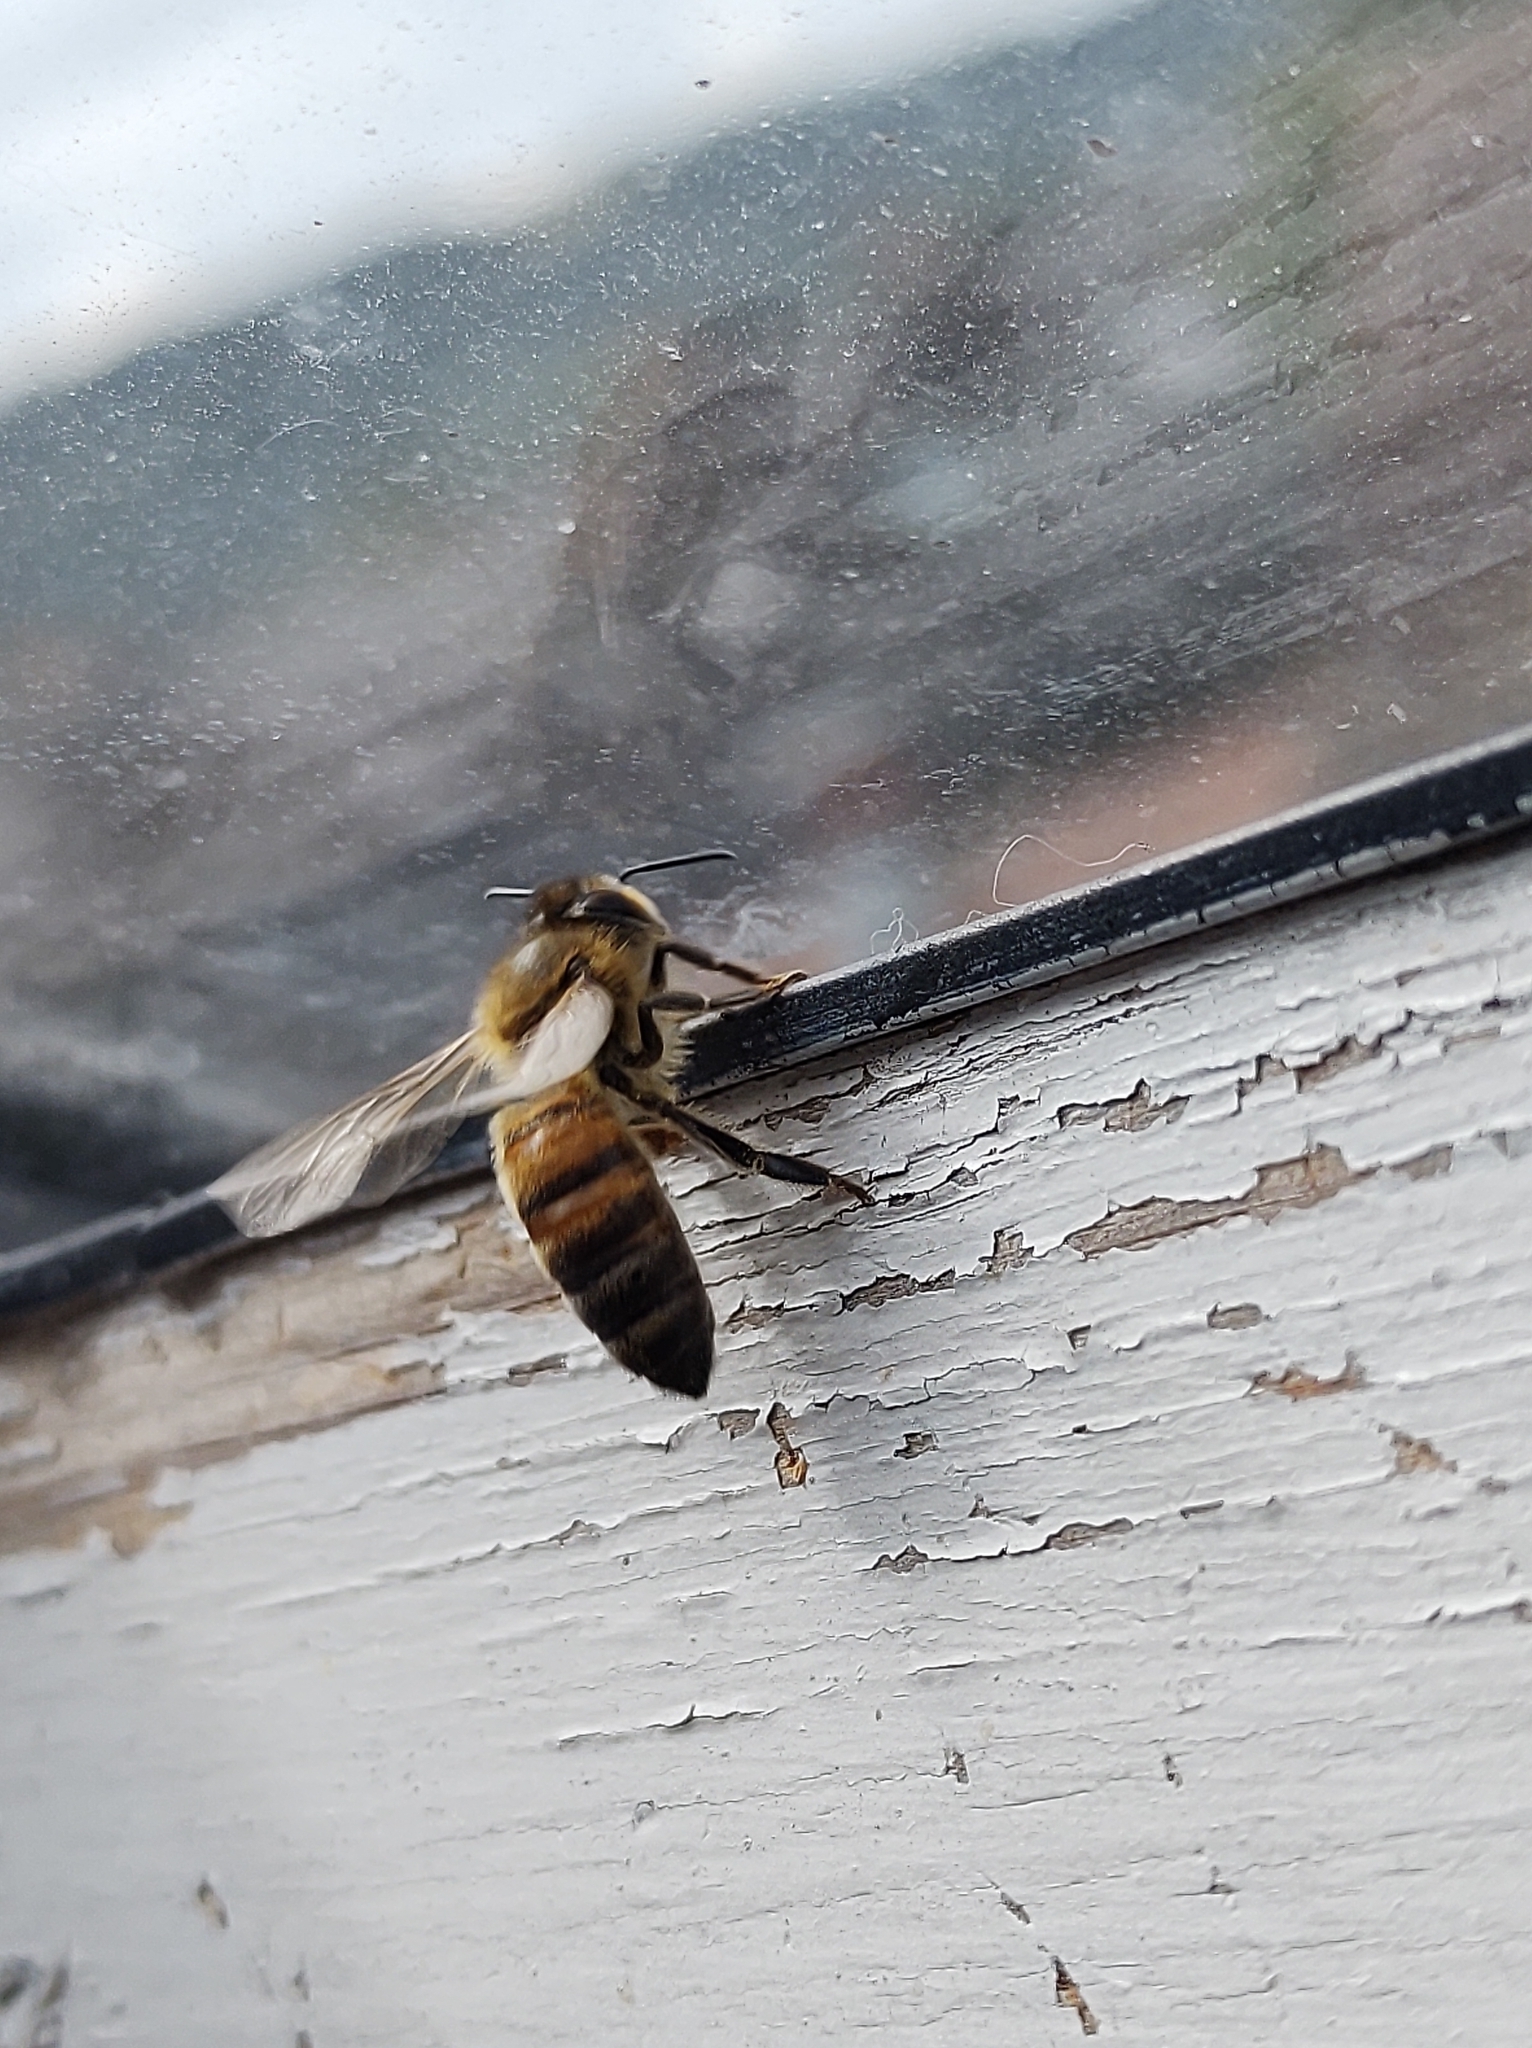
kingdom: Animalia
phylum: Arthropoda
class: Insecta
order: Hymenoptera
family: Apidae
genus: Apis
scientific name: Apis mellifera
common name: Honey bee
